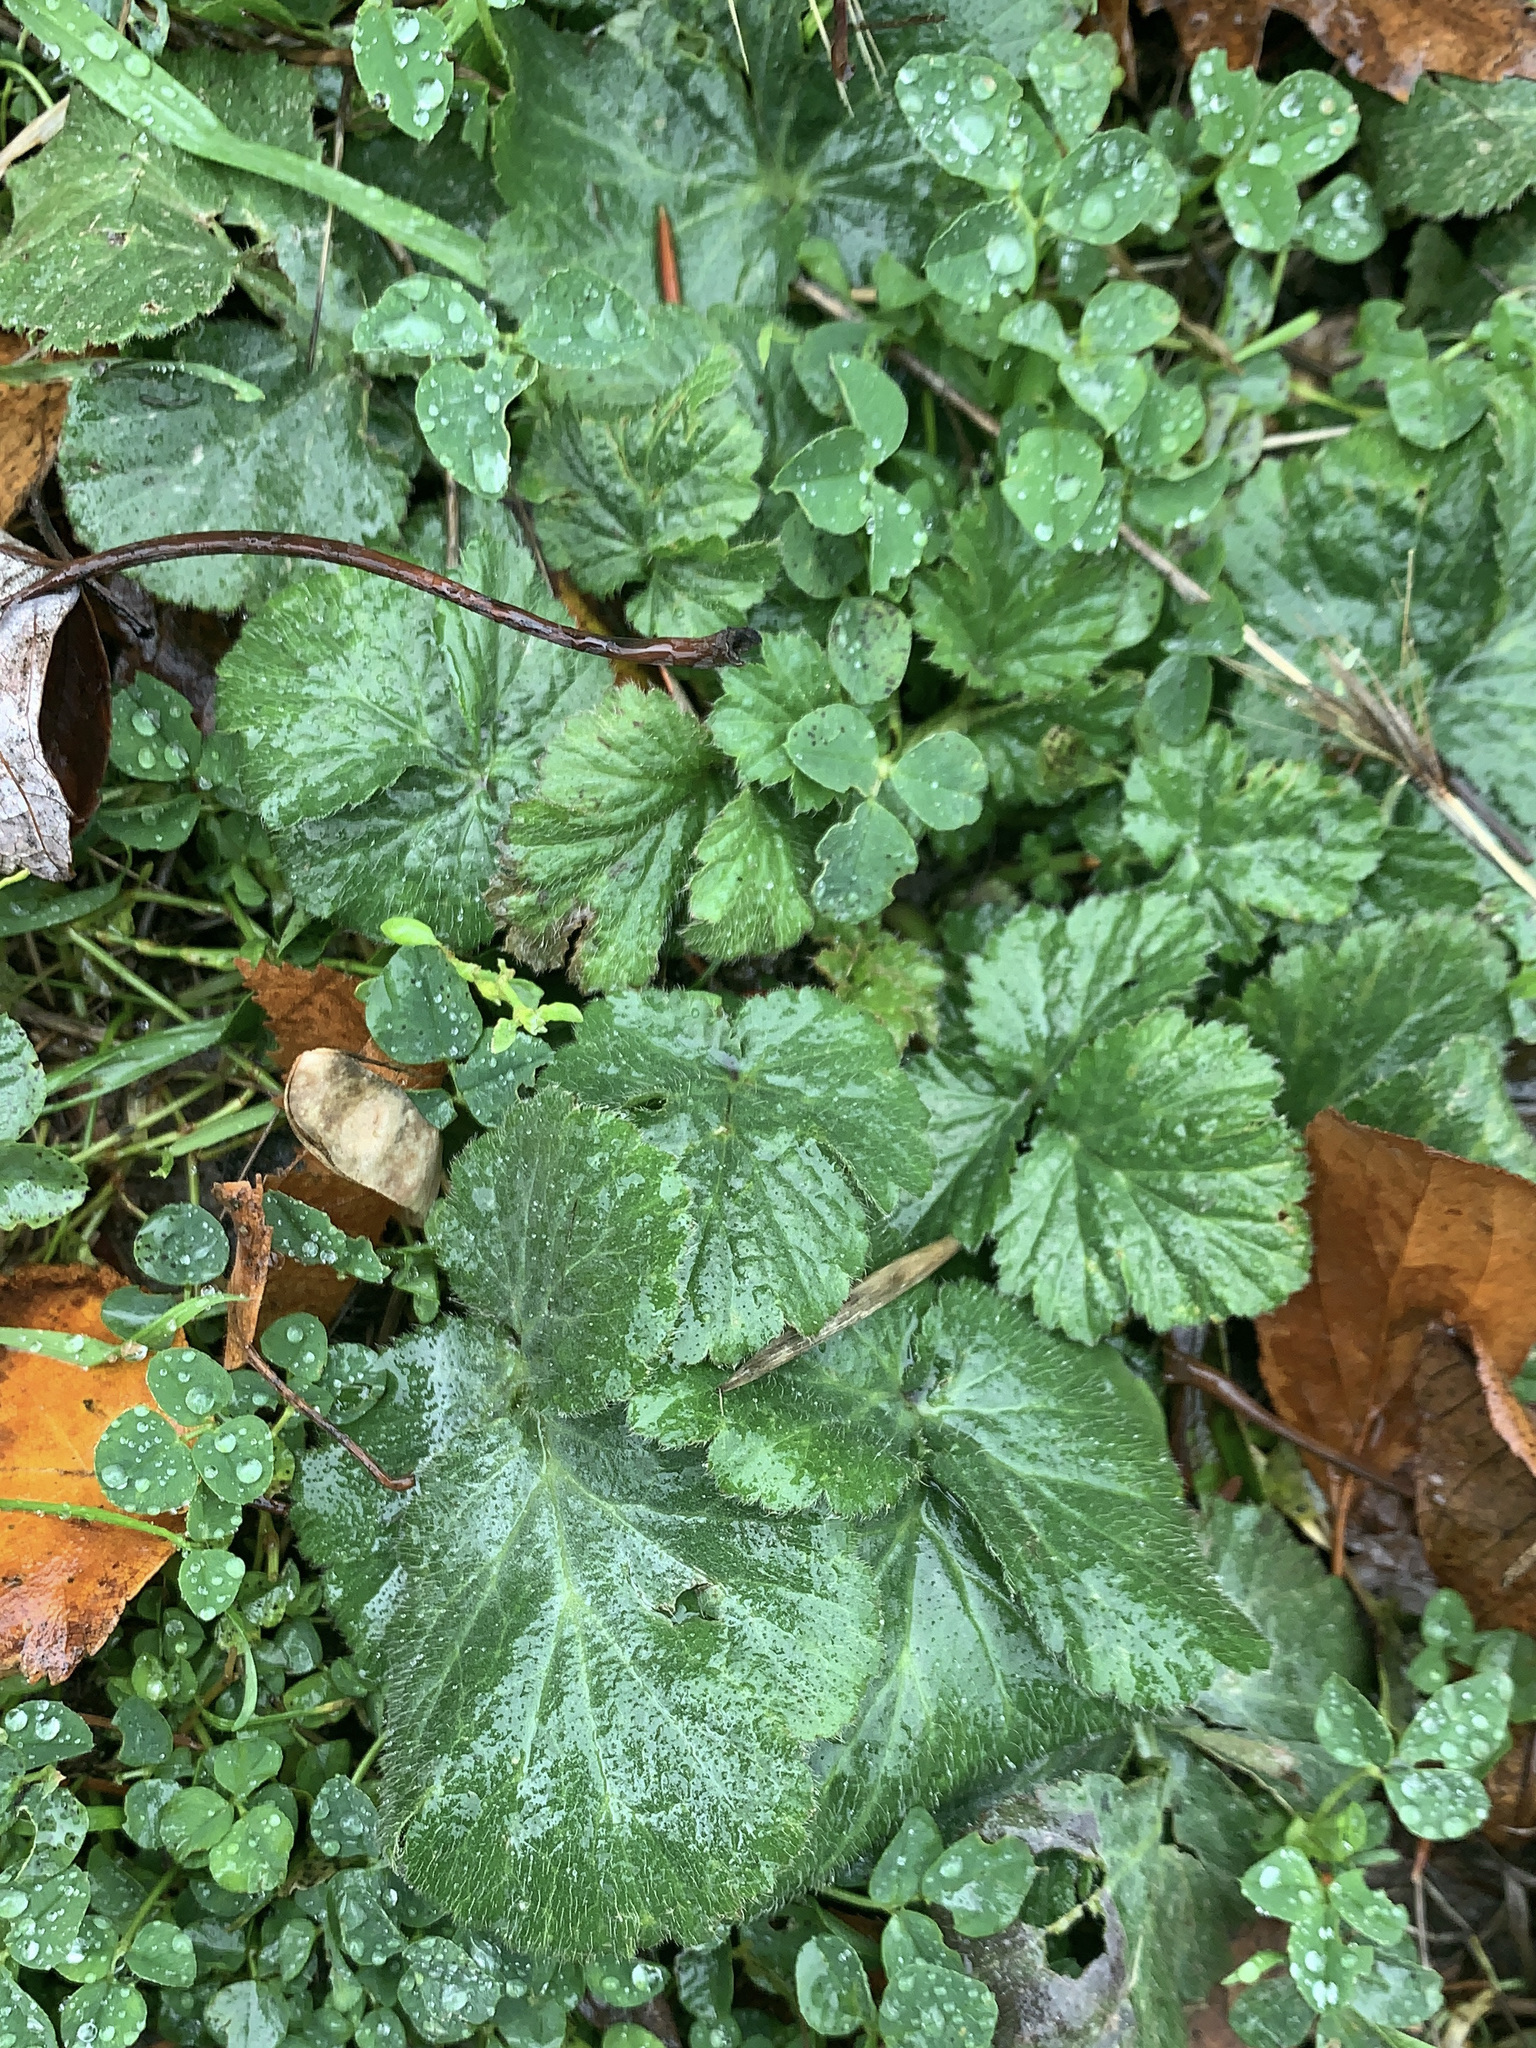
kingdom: Plantae
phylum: Tracheophyta
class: Magnoliopsida
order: Rosales
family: Rosaceae
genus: Geum
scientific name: Geum urbanum
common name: Wood avens
